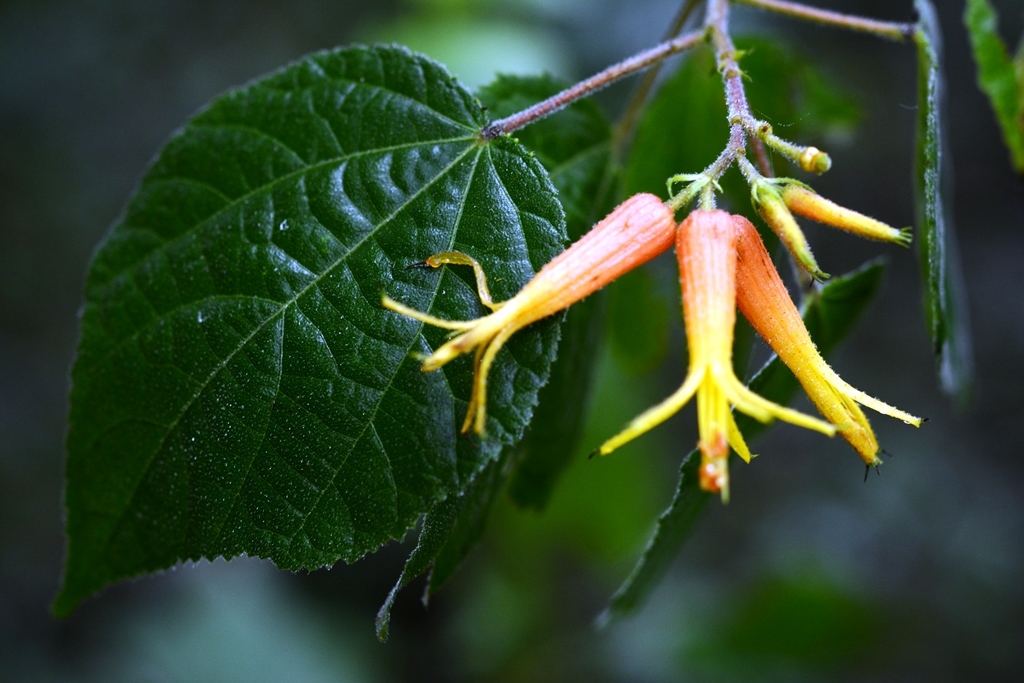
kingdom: Plantae
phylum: Tracheophyta
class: Magnoliopsida
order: Malvales
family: Malvaceae
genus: Triumfetta
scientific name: Triumfetta speciosa
